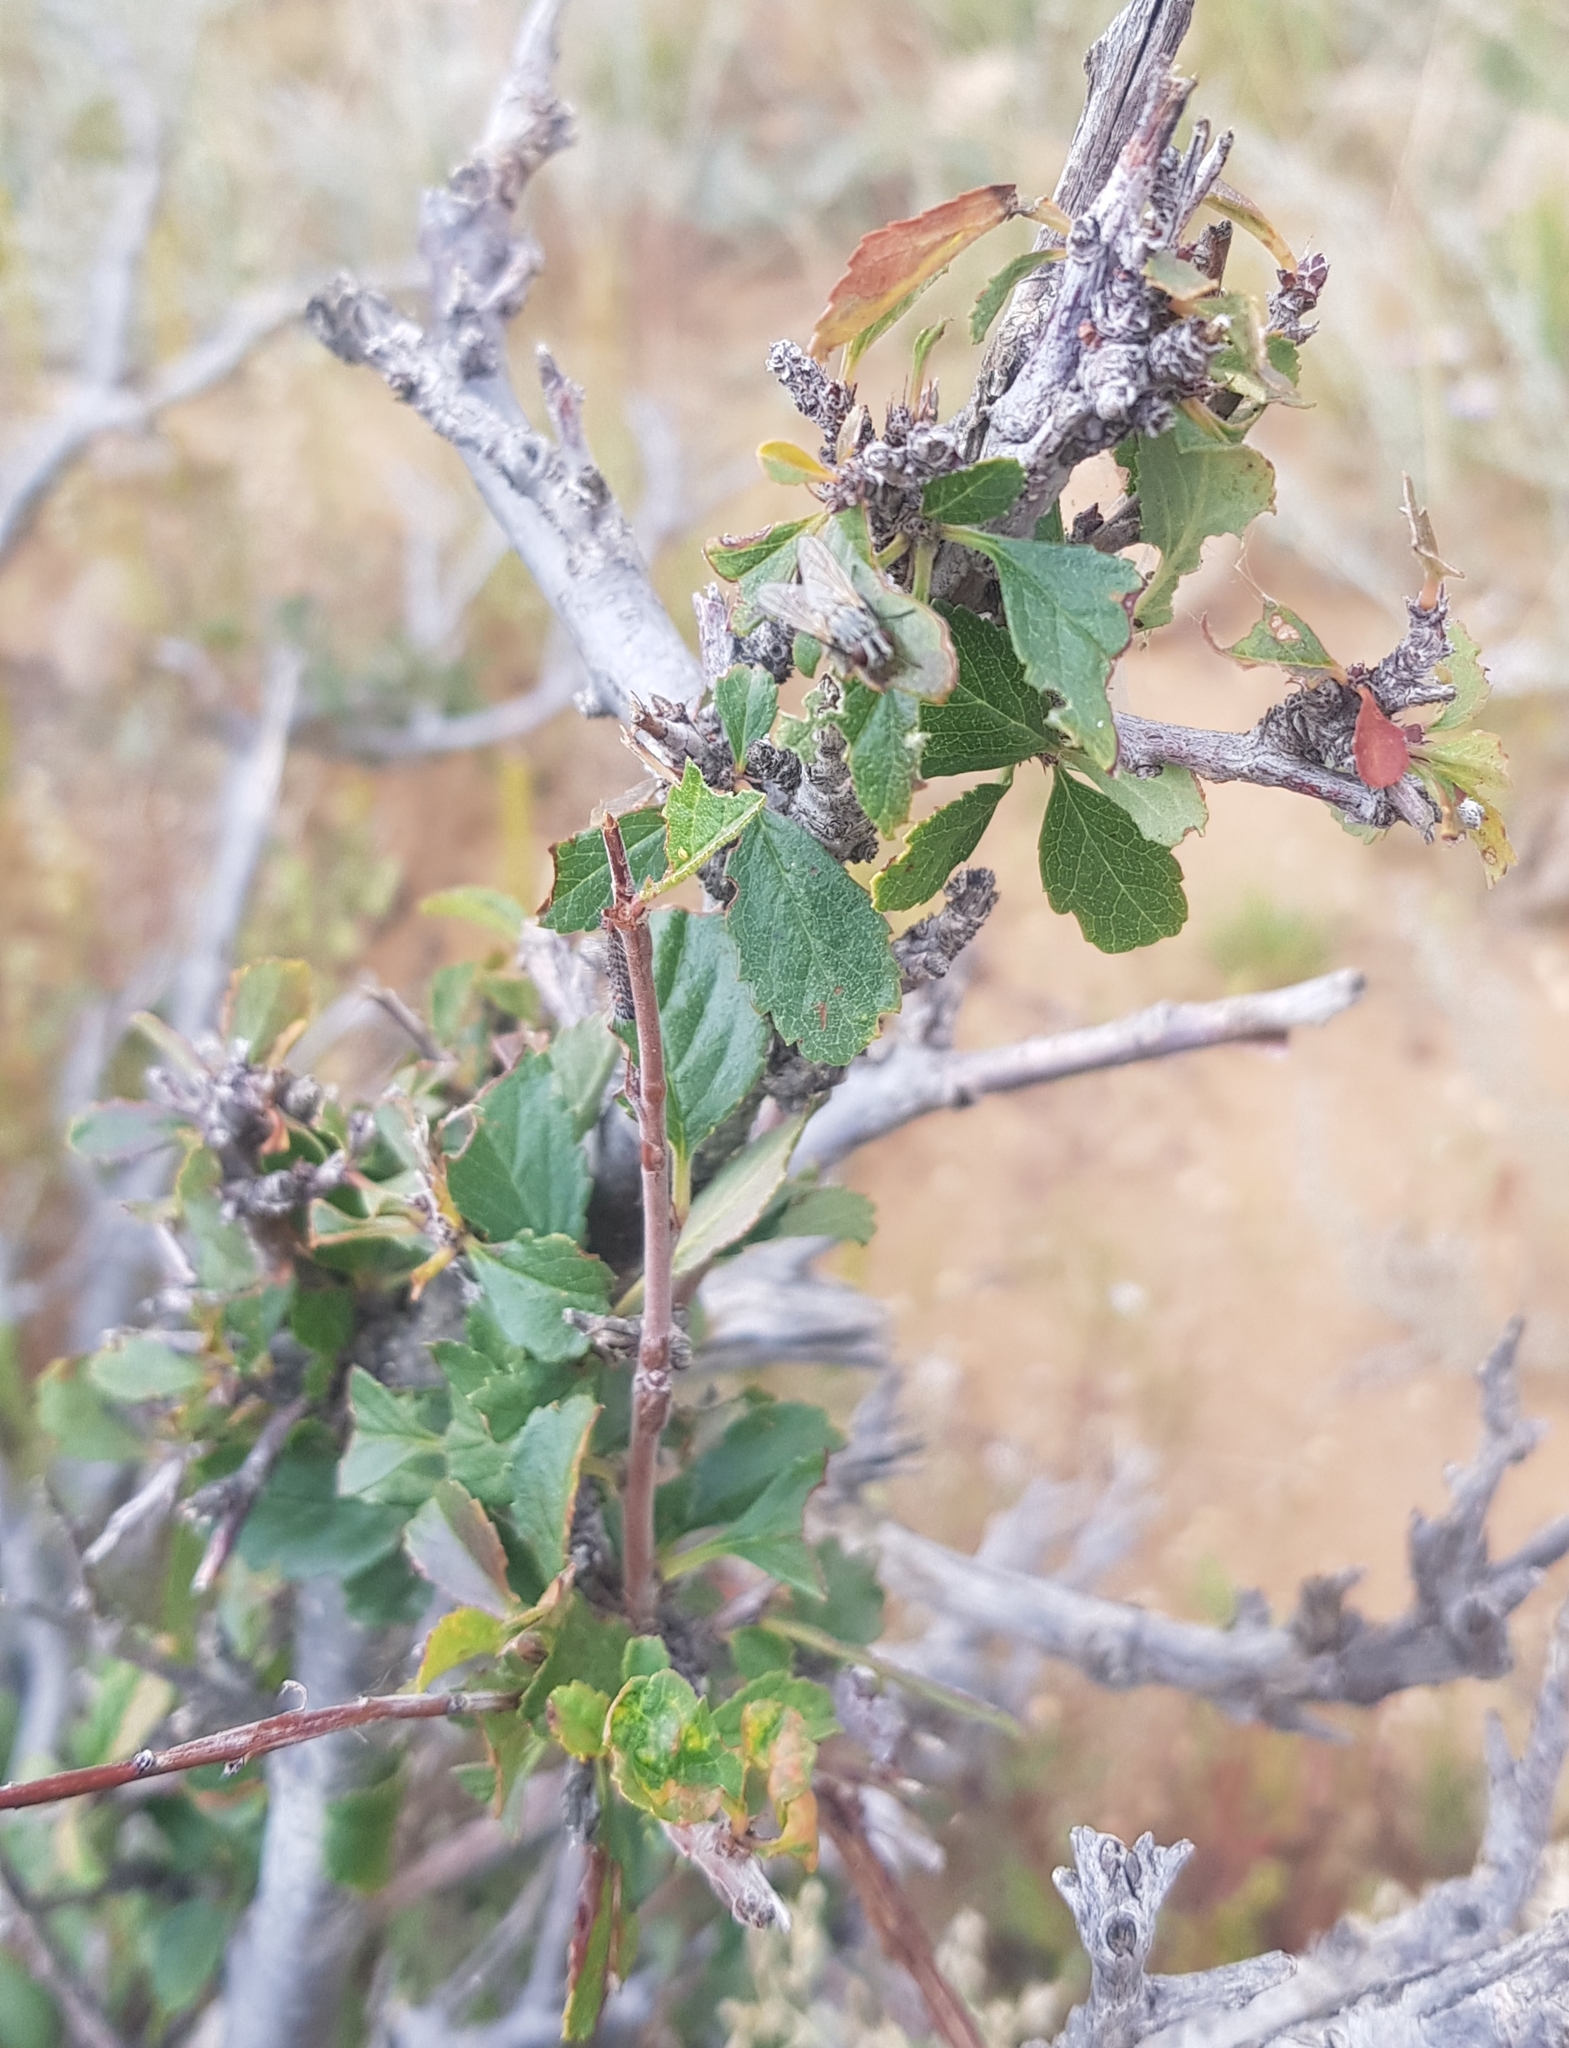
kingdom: Plantae
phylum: Tracheophyta
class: Magnoliopsida
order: Rosales
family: Rosaceae
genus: Prunus
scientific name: Prunus pedunculata
